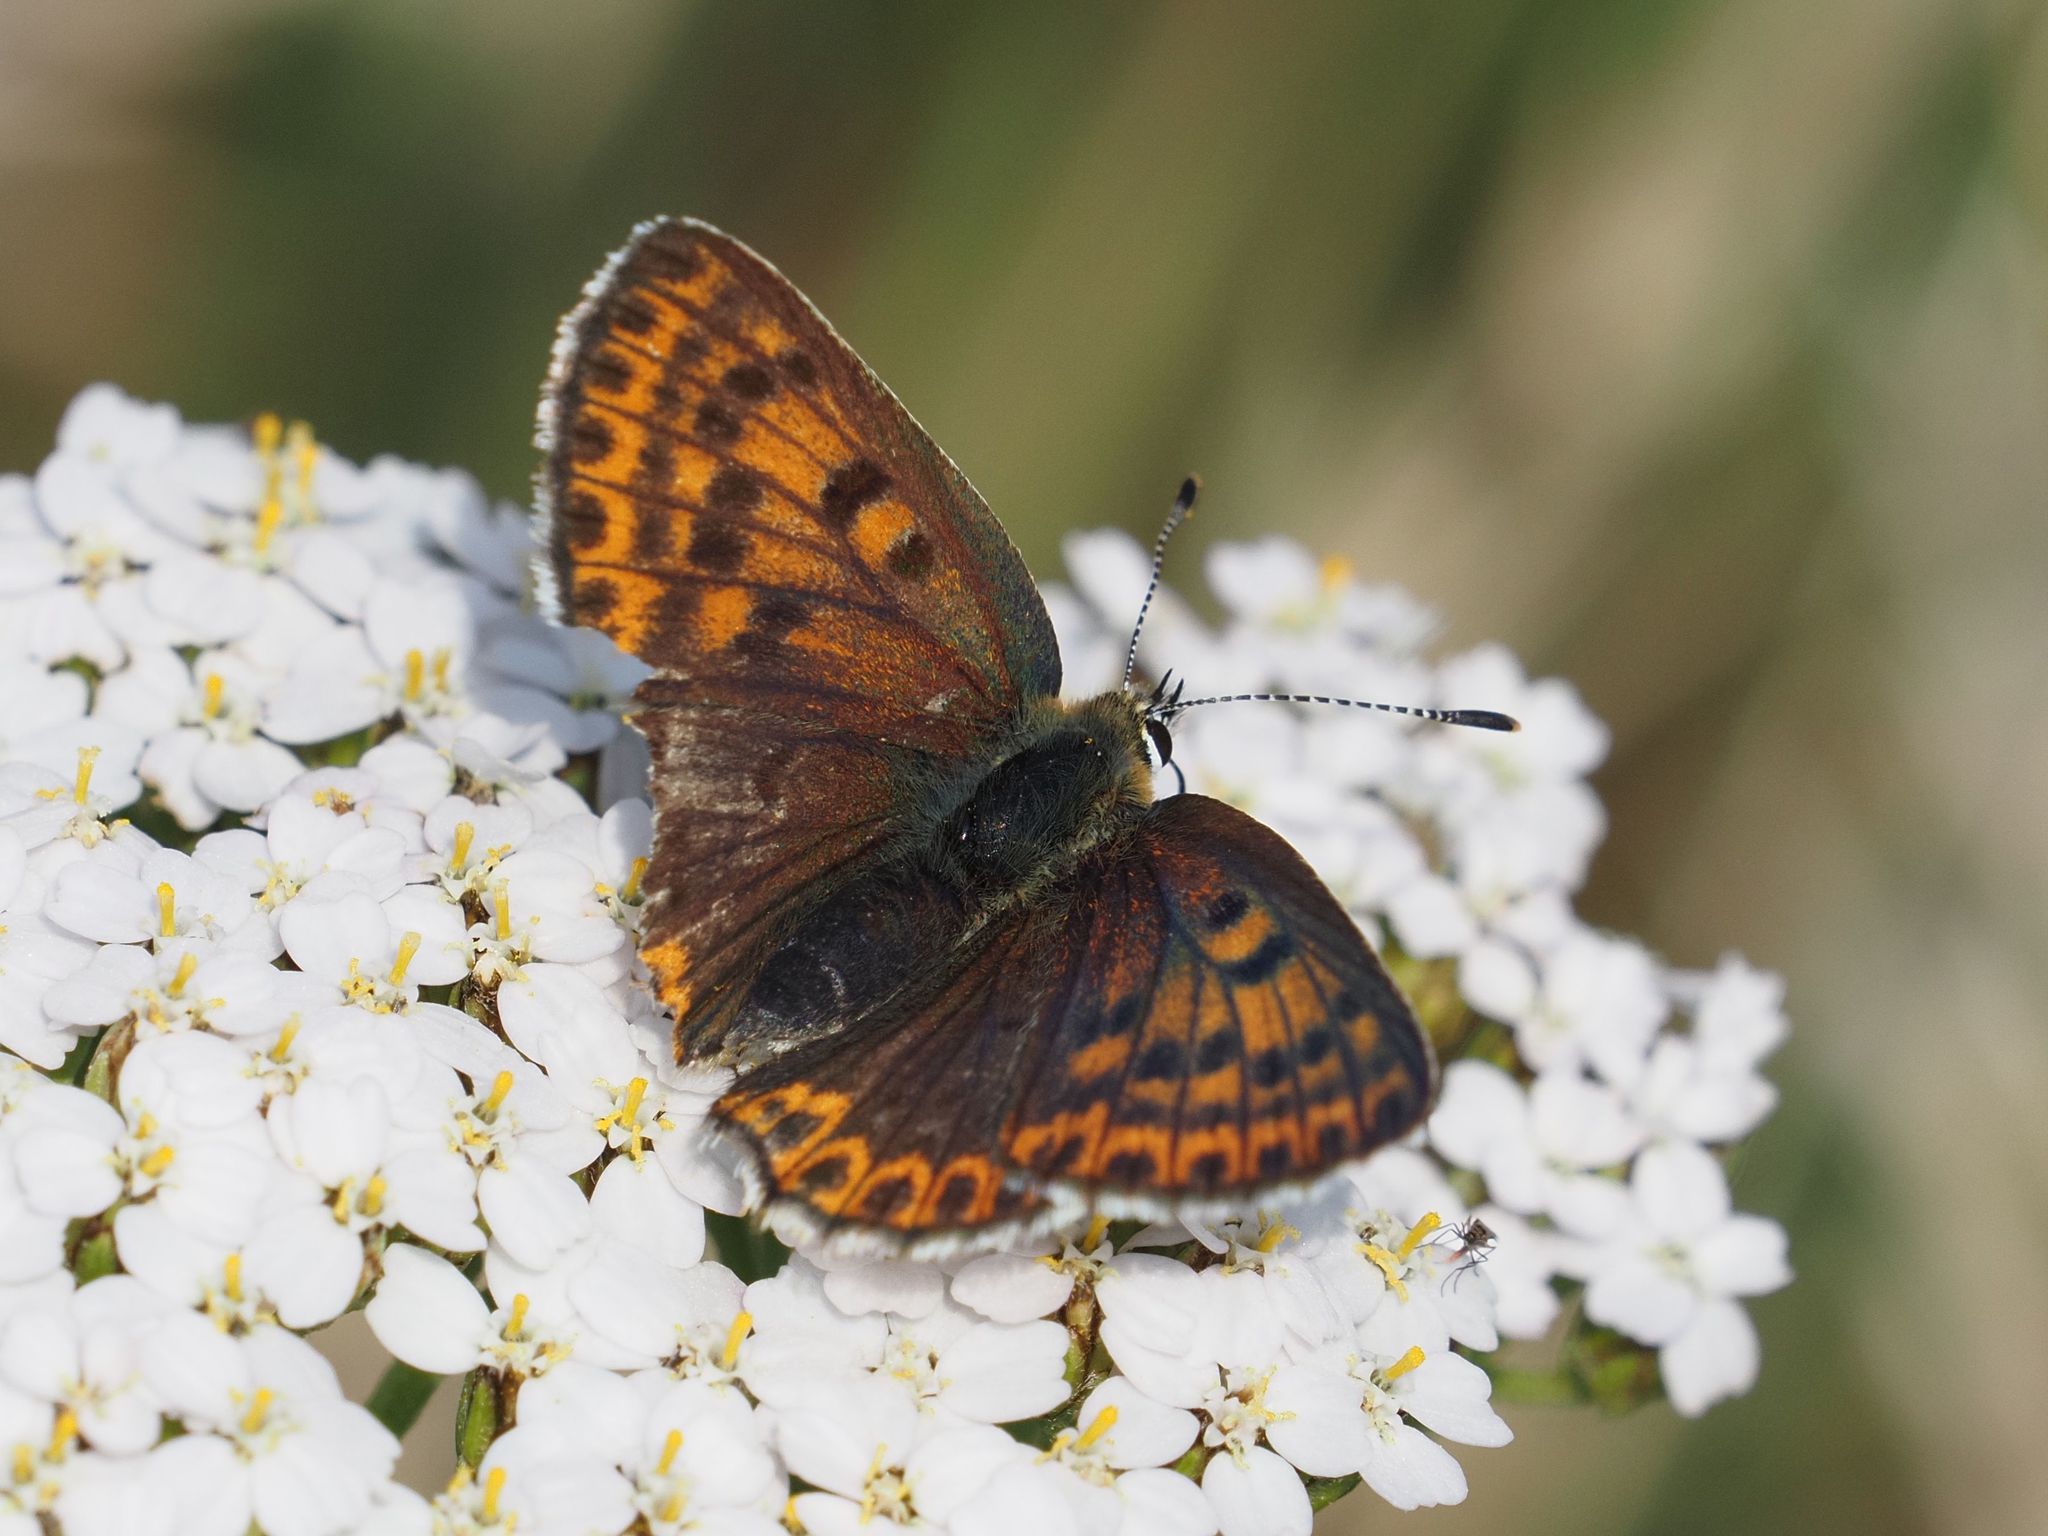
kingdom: Animalia
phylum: Arthropoda
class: Insecta
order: Lepidoptera
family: Lycaenidae
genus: Loweia
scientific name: Loweia tityrus
